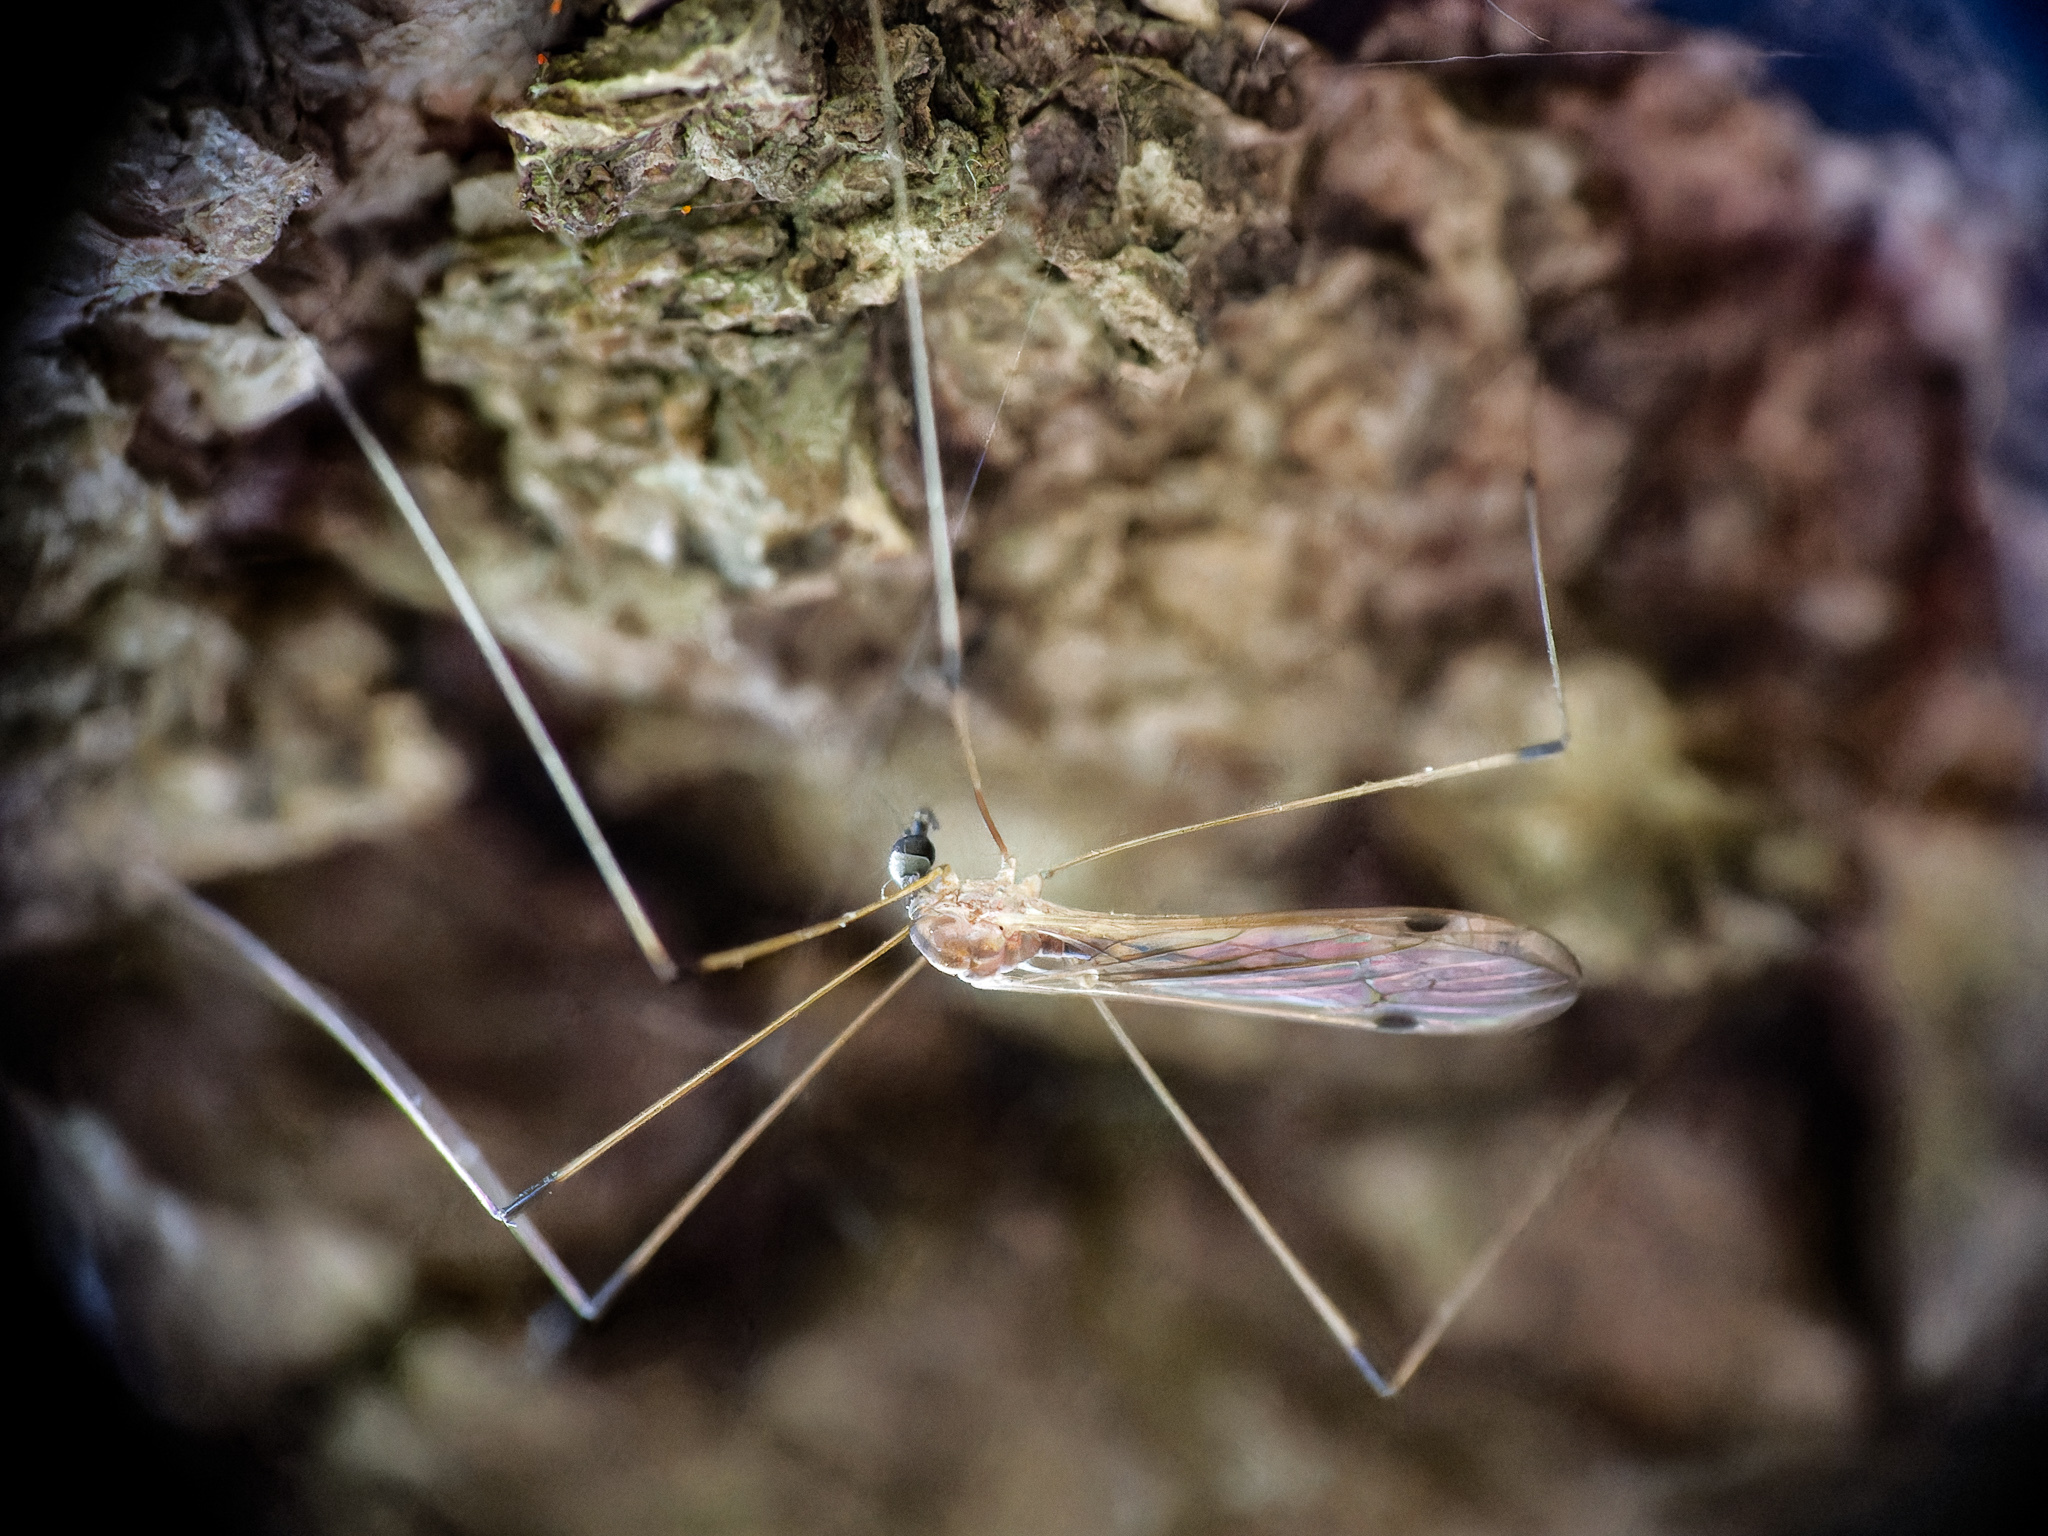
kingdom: Animalia
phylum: Arthropoda
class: Insecta
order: Diptera
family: Limoniidae
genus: Helius
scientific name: Helius flavipes
